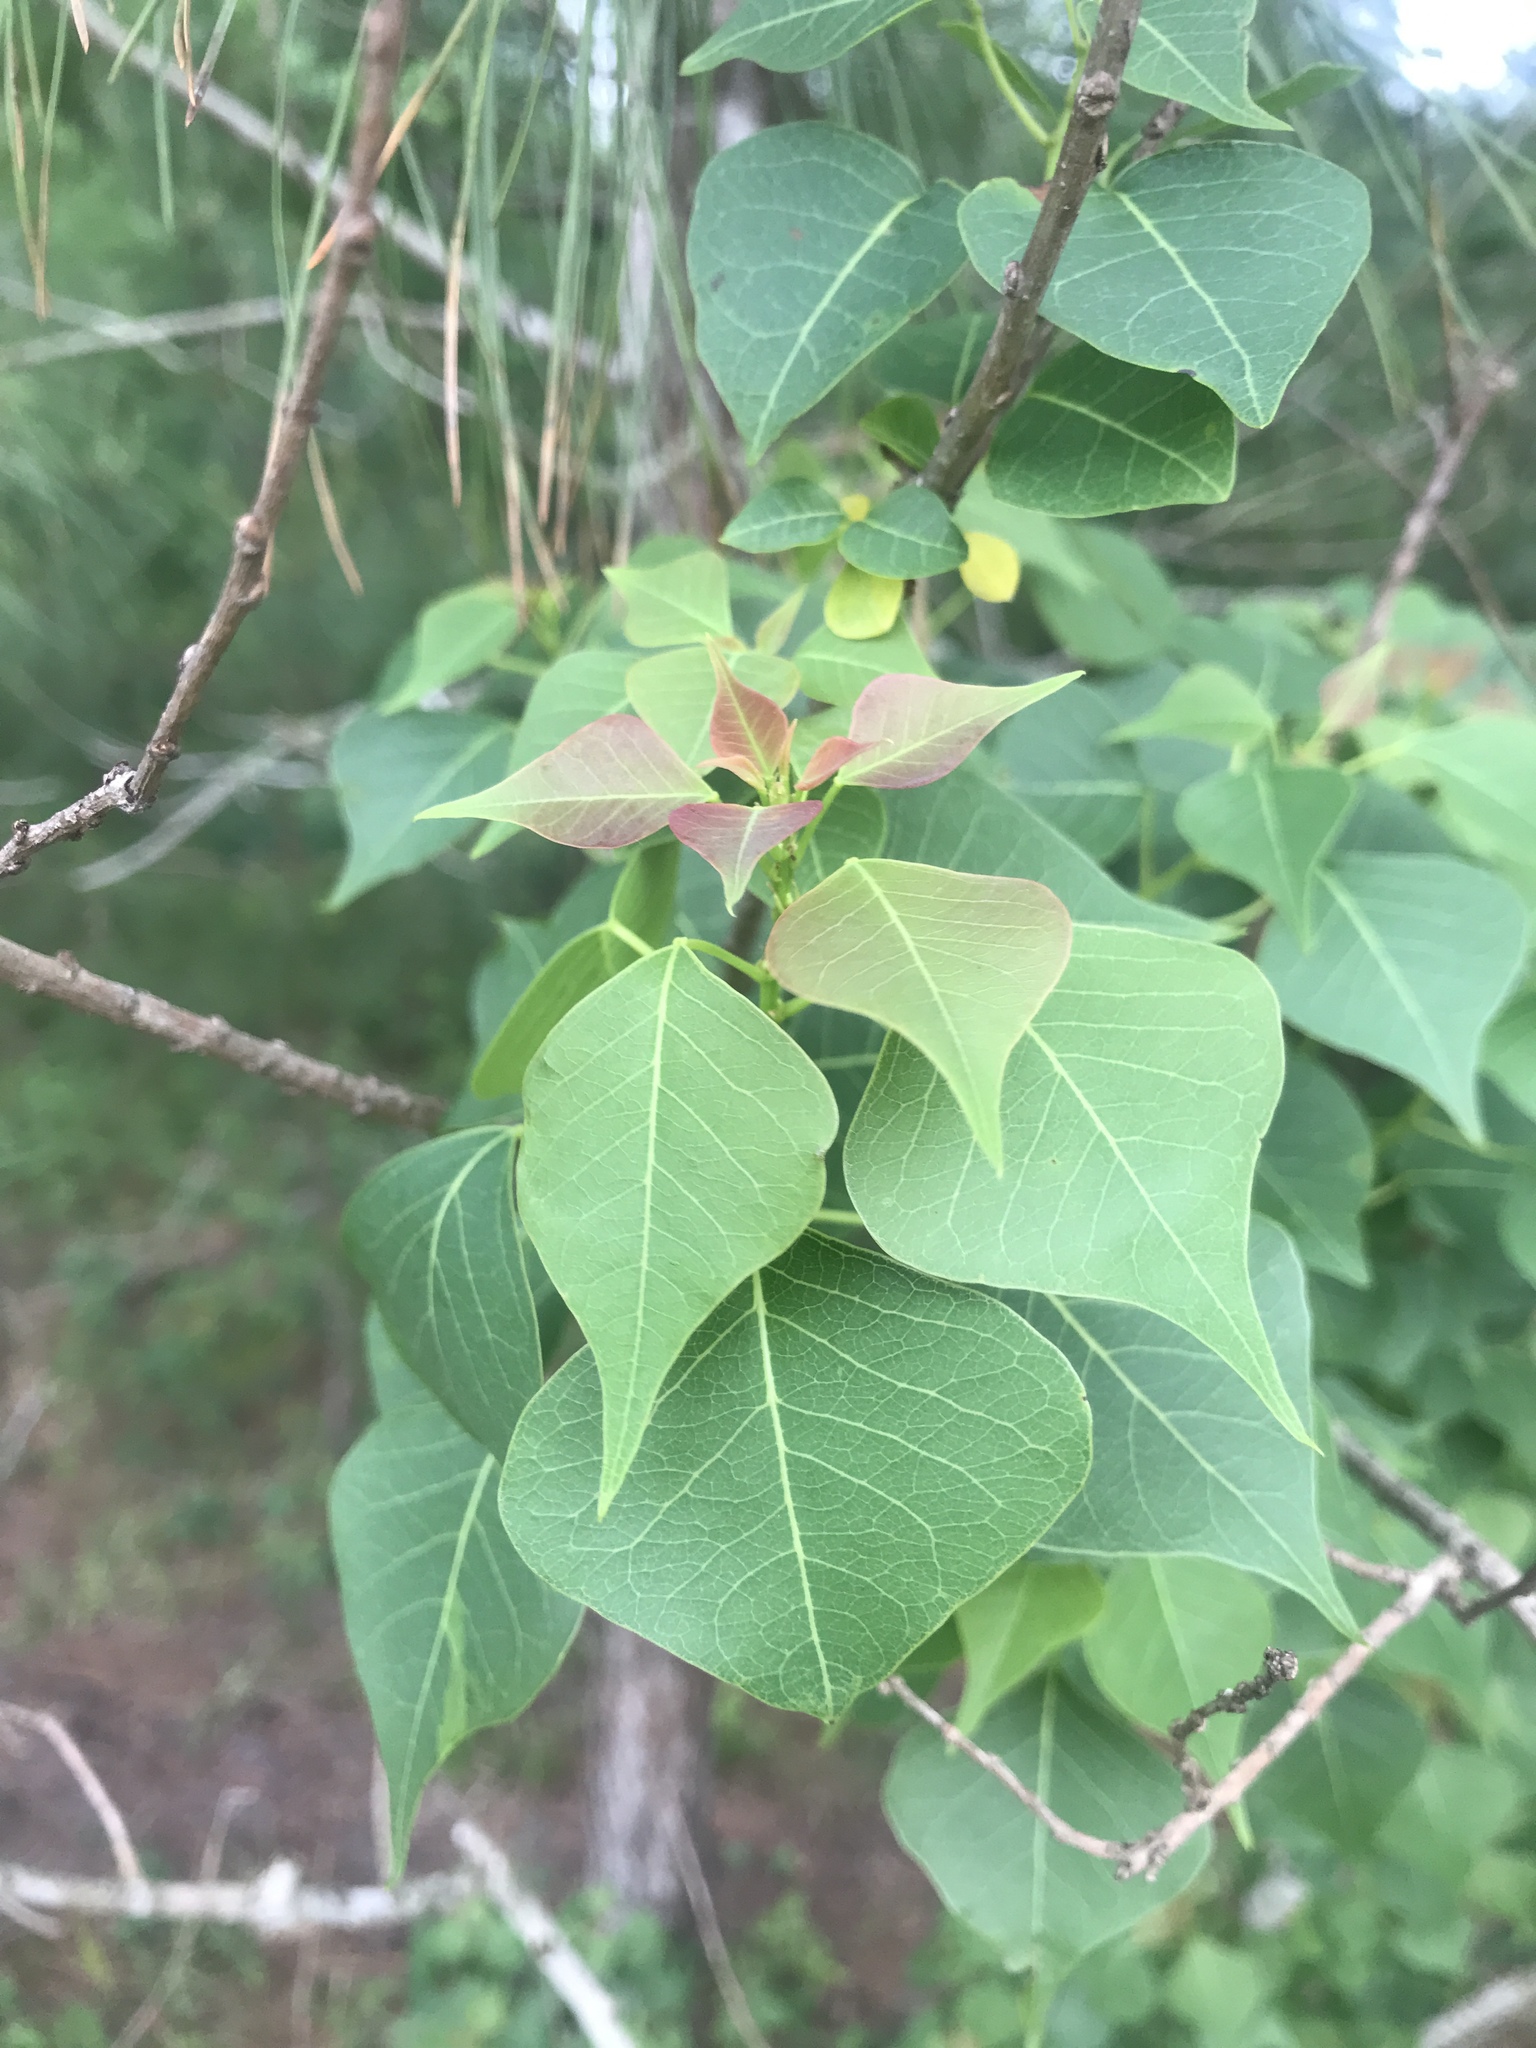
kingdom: Plantae
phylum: Tracheophyta
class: Magnoliopsida
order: Malpighiales
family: Euphorbiaceae
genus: Triadica
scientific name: Triadica sebifera
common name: Chinese tallow
